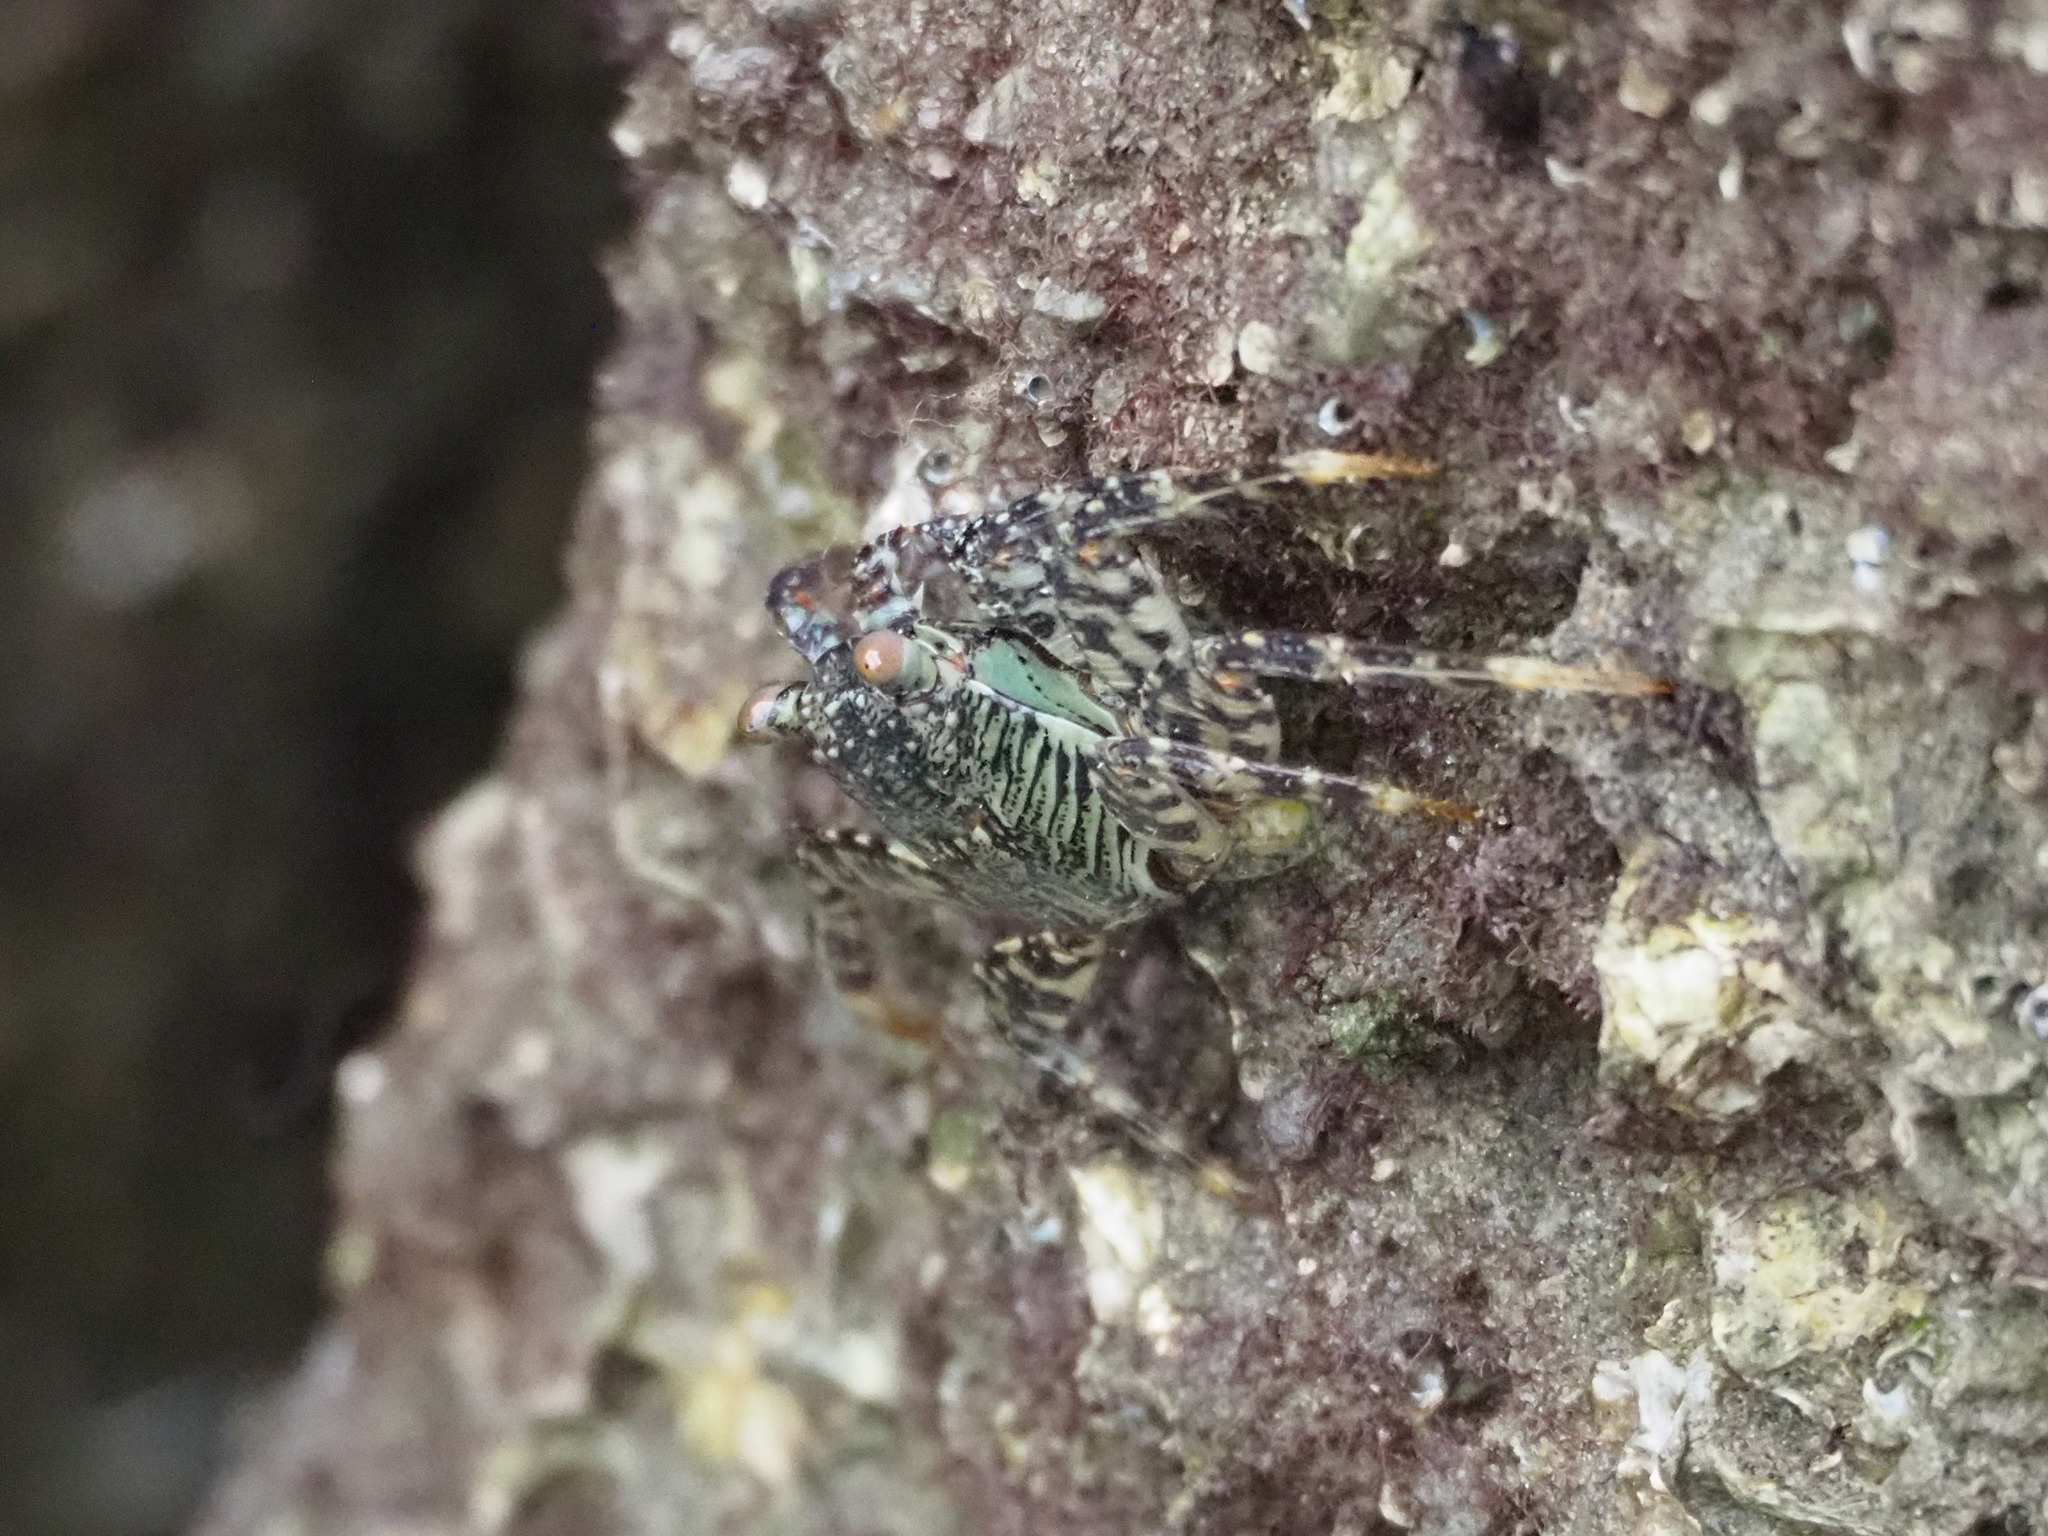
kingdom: Animalia
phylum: Arthropoda
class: Malacostraca
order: Decapoda
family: Grapsidae
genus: Grapsus
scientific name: Grapsus albolineatus
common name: Mottled lightfoot crab
